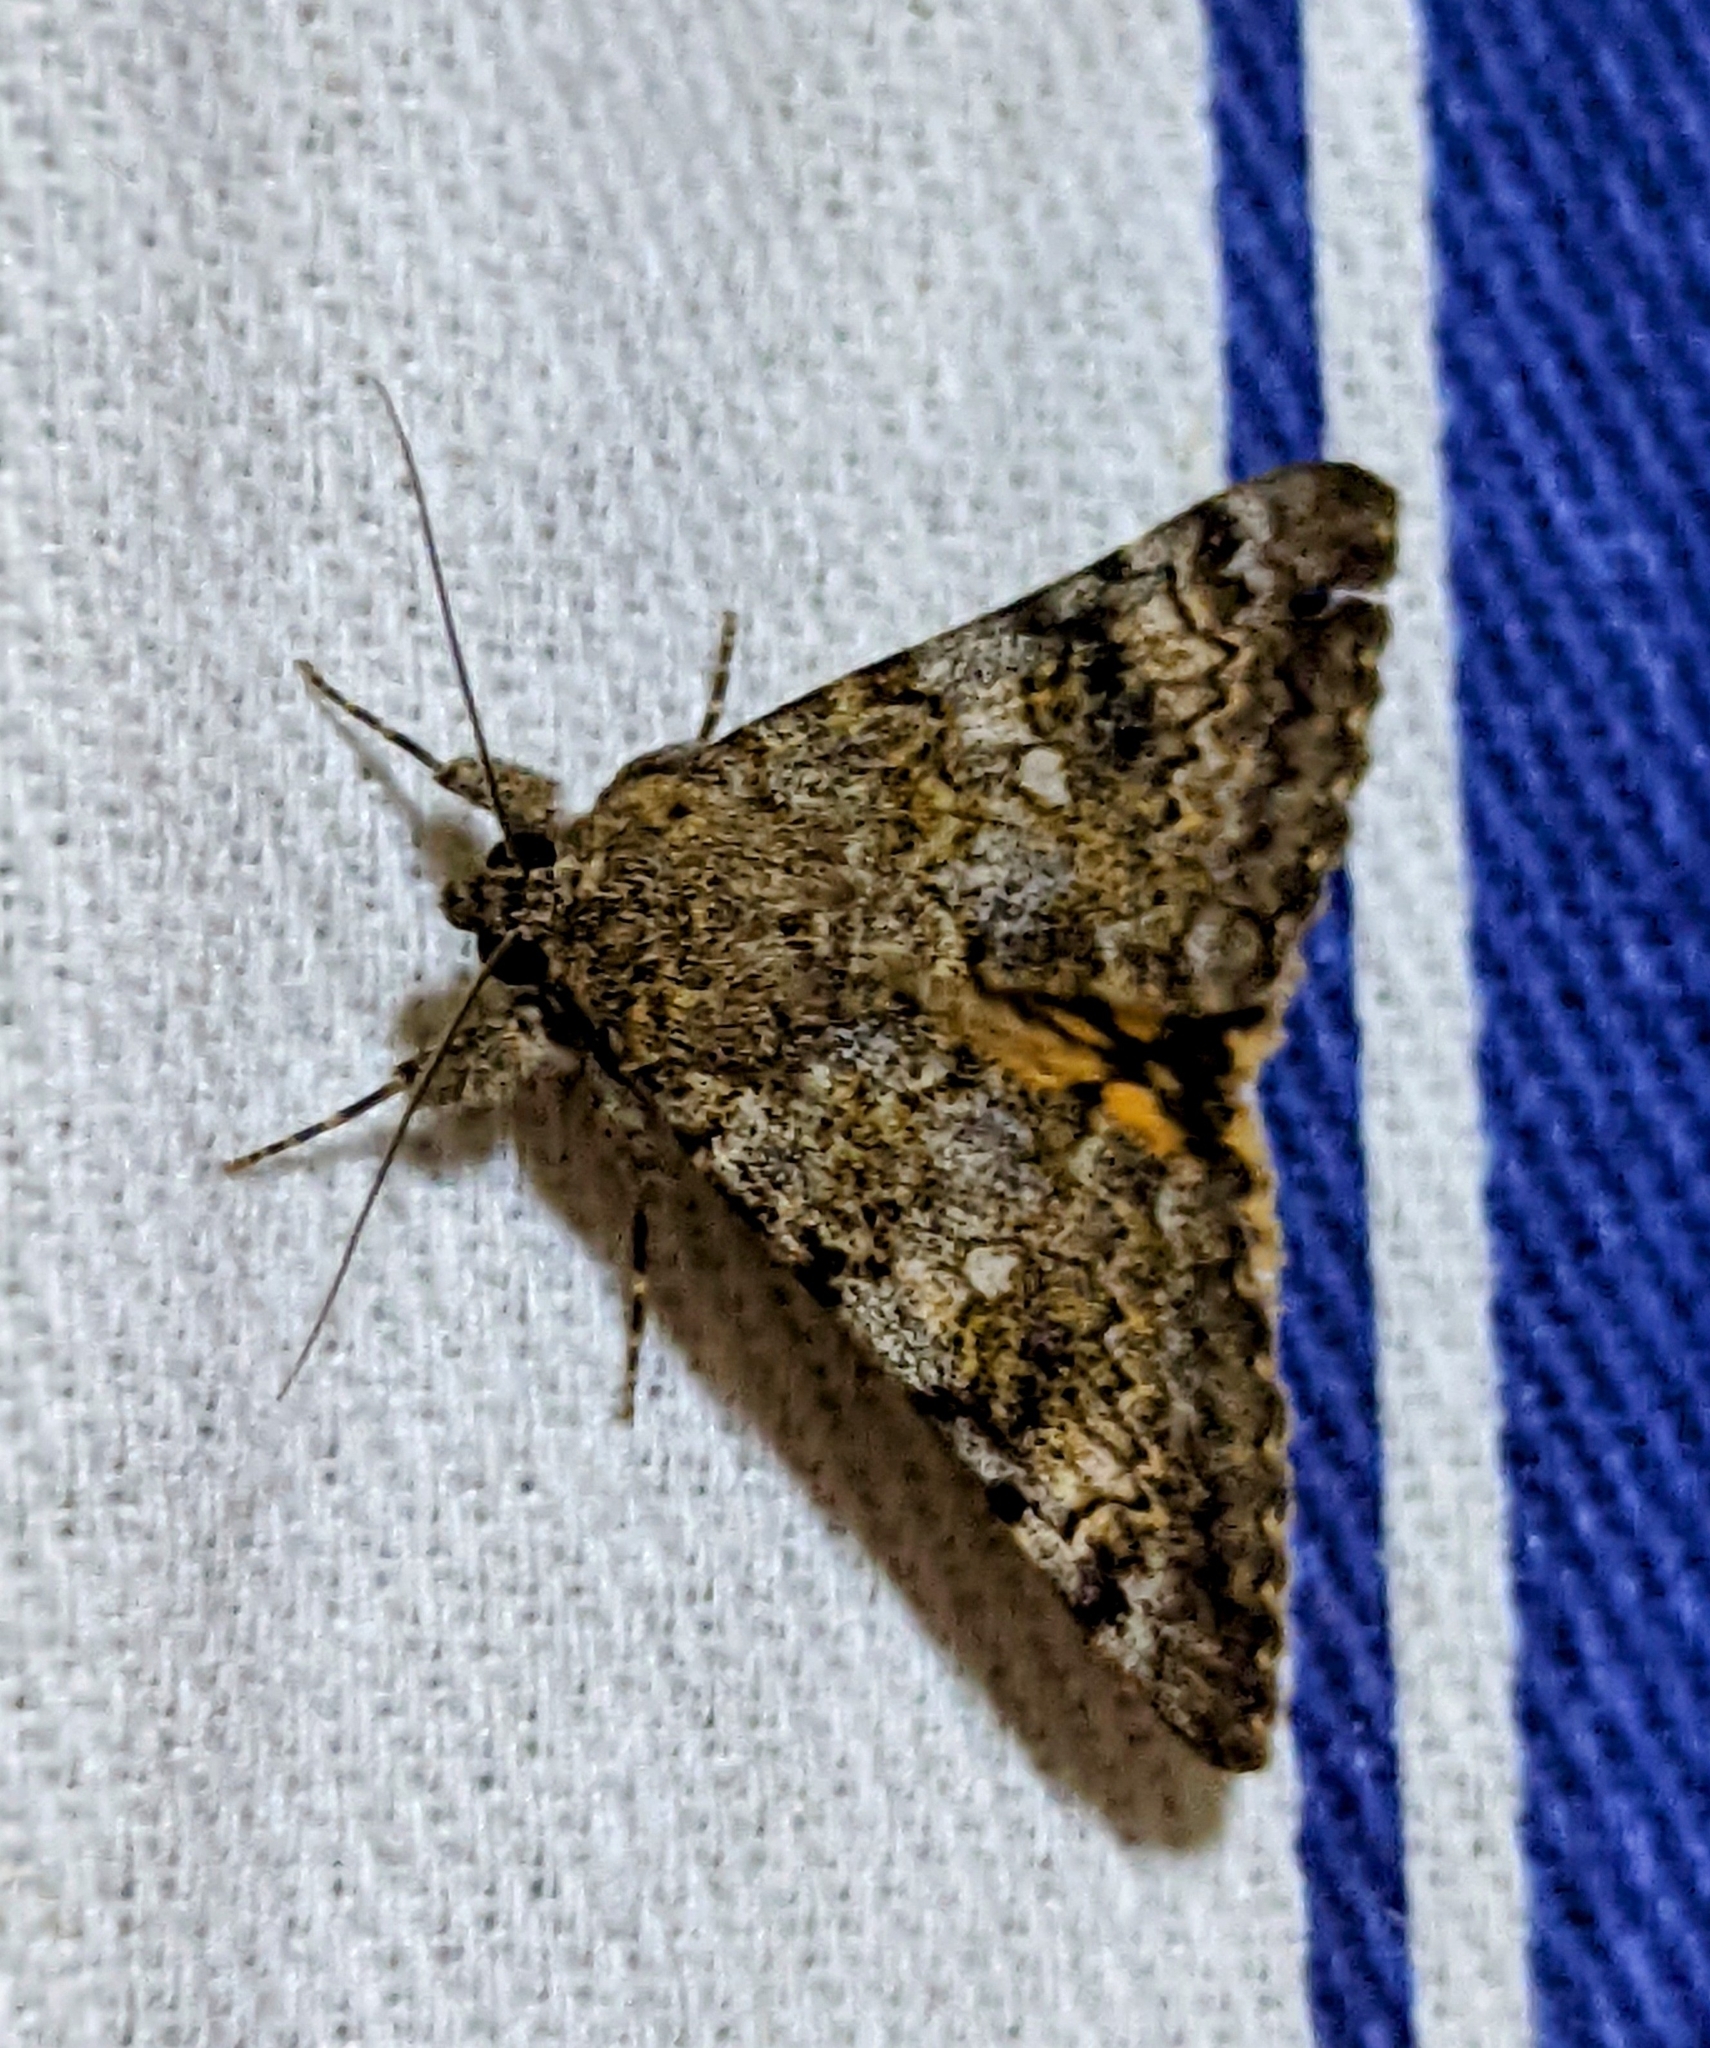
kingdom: Animalia
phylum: Arthropoda
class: Insecta
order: Lepidoptera
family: Erebidae
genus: Catocala
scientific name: Catocala nymphaea
